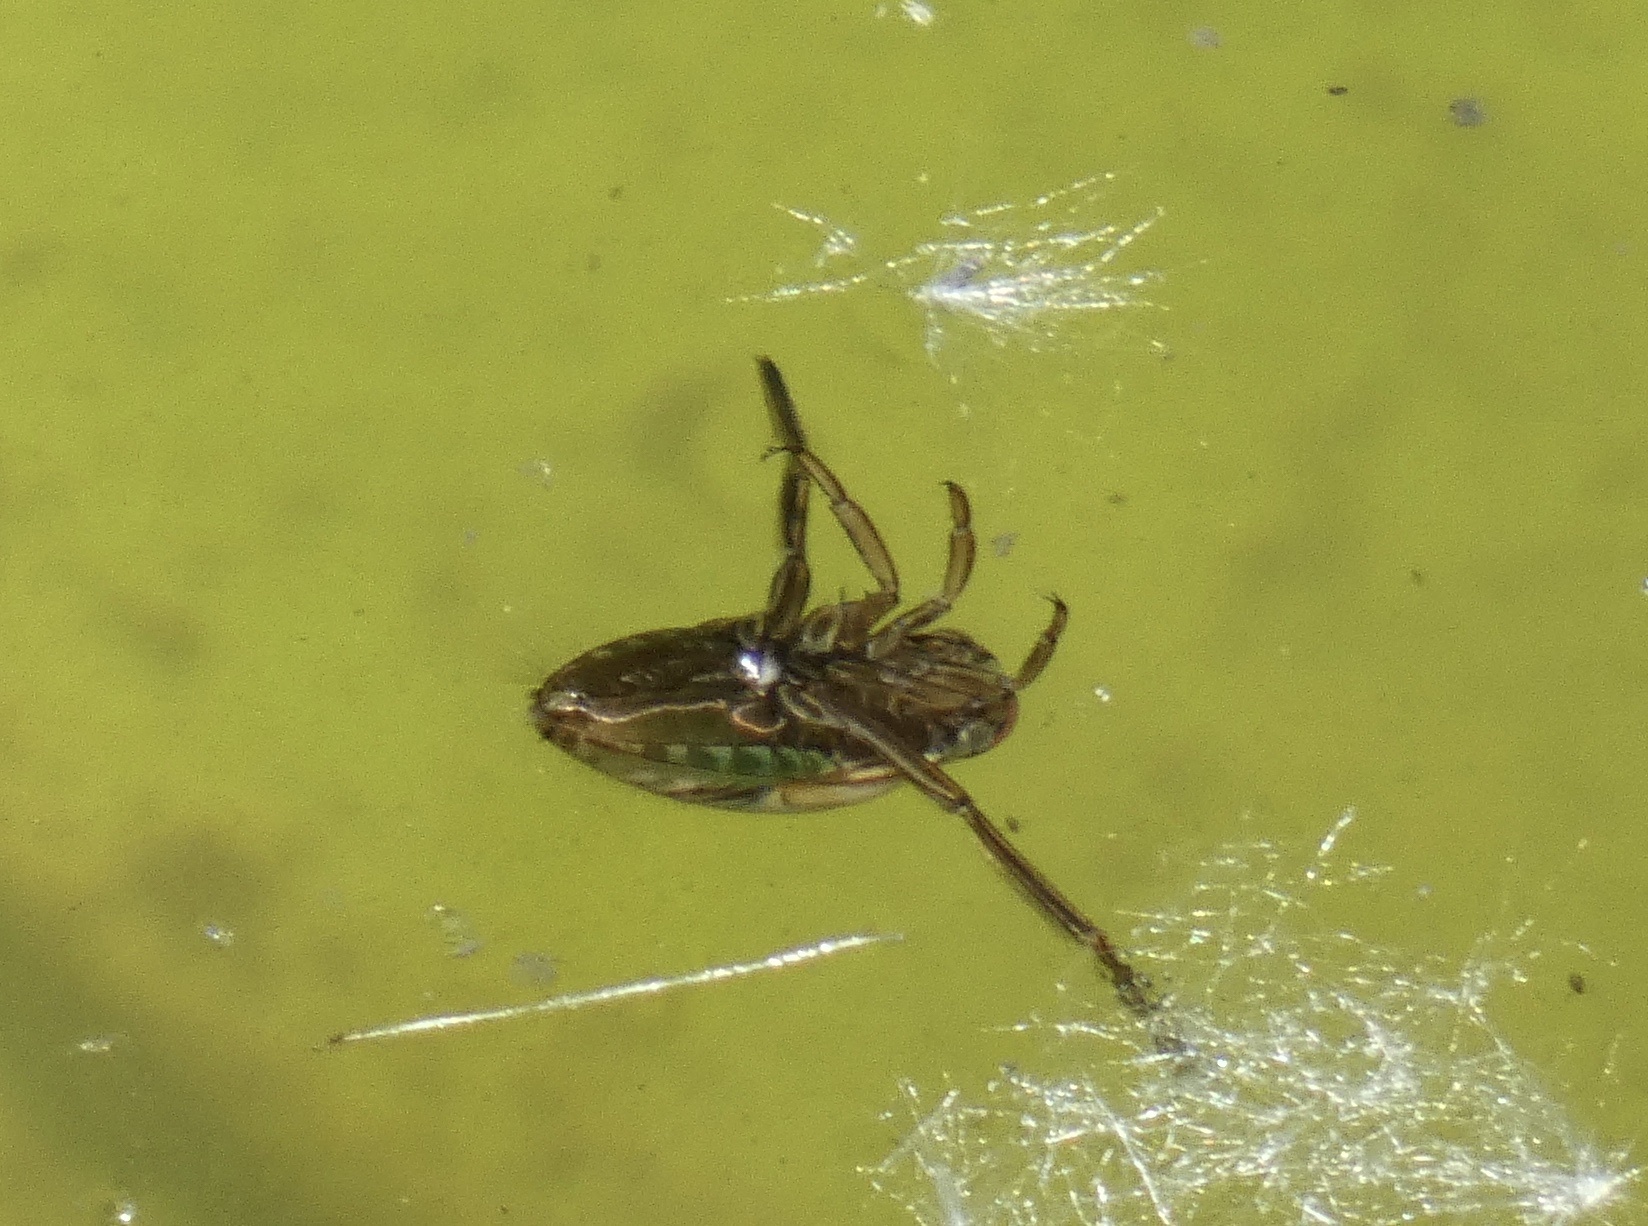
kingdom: Animalia
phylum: Arthropoda
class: Insecta
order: Hemiptera
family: Notonectidae
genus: Notonecta
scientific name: Notonecta
